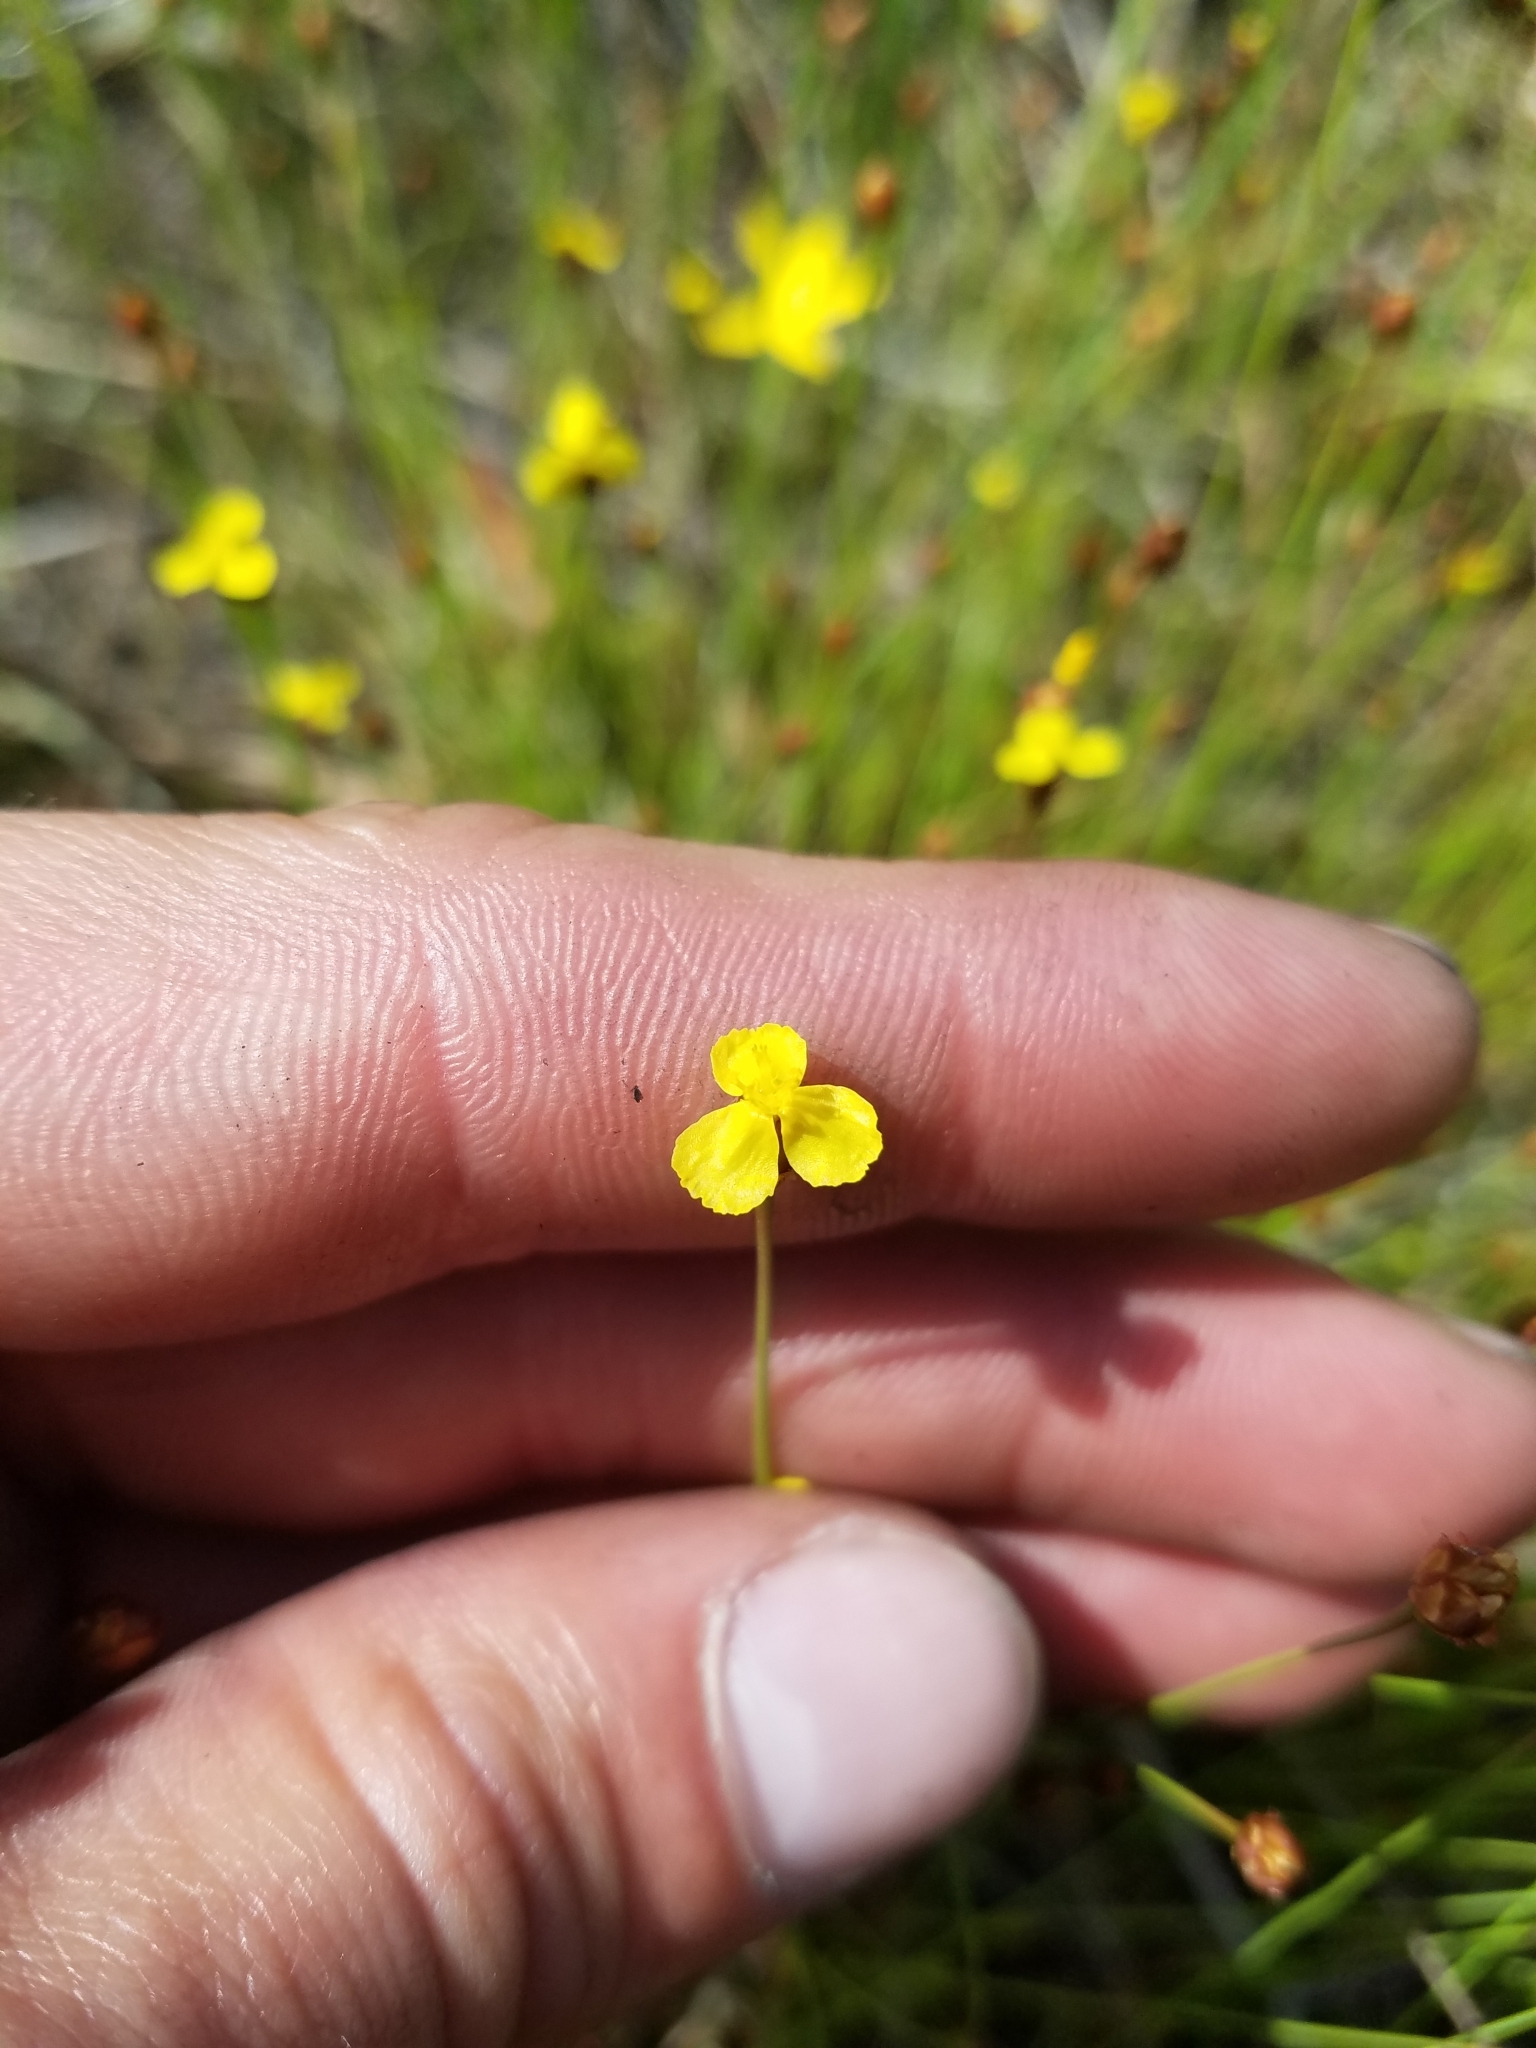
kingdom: Plantae
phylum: Tracheophyta
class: Liliopsida
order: Poales
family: Xyridaceae
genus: Xyris
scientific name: Xyris brevifolia
